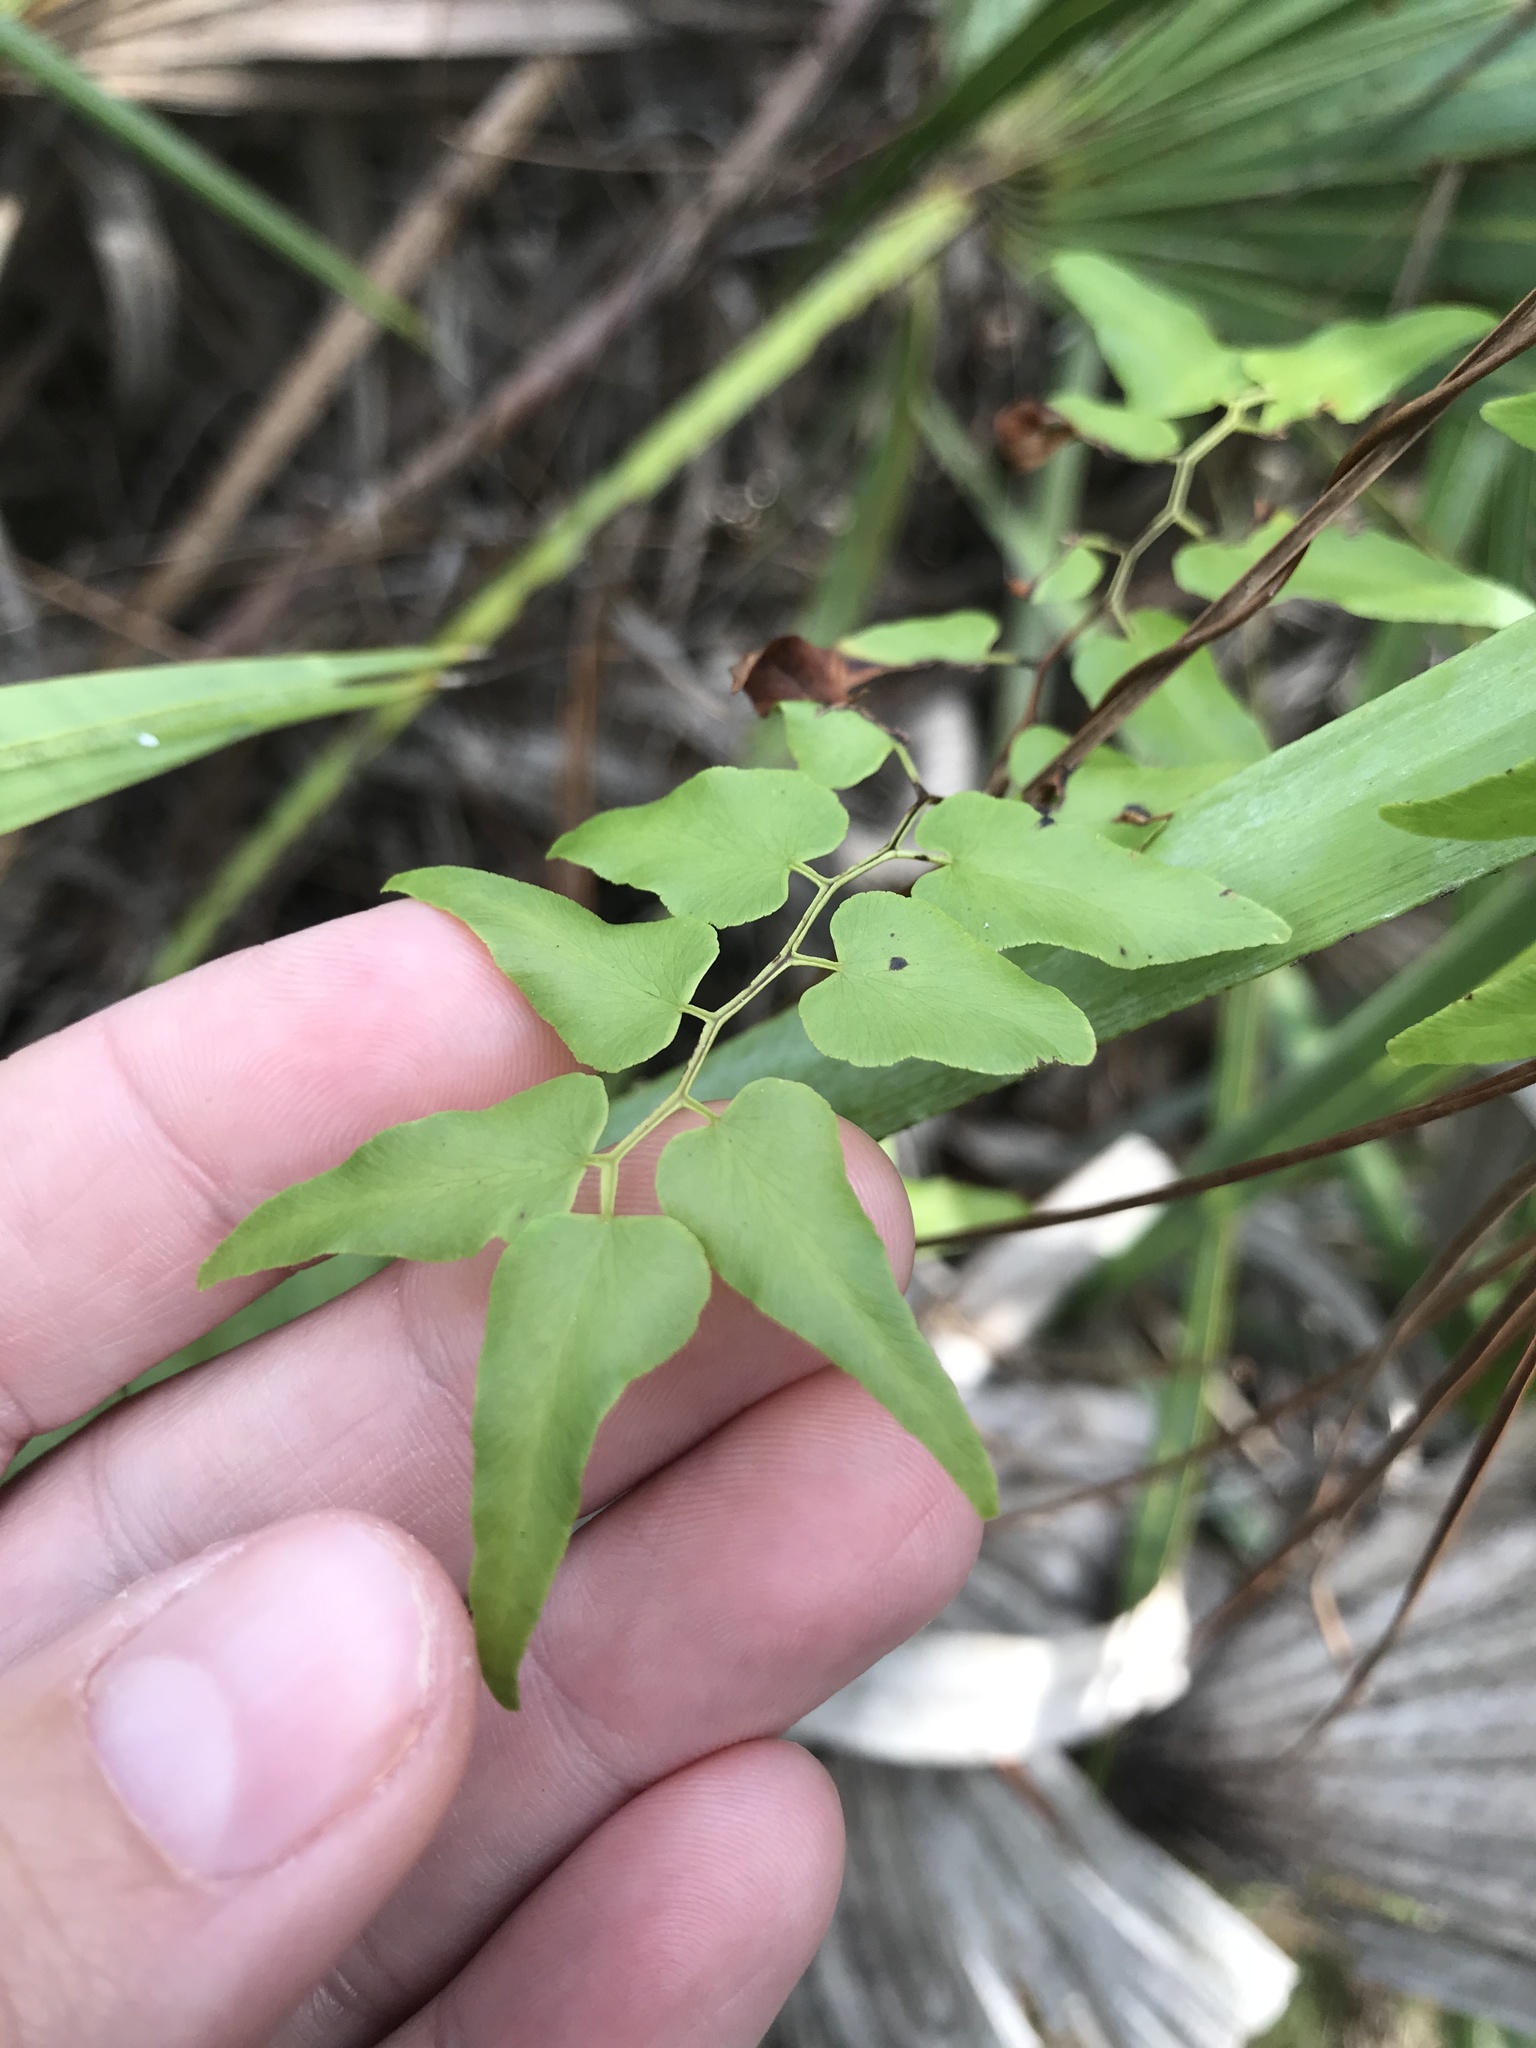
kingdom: Plantae
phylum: Tracheophyta
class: Polypodiopsida
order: Schizaeales
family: Lygodiaceae
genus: Lygodium
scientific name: Lygodium microphyllum
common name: Small-leaf climbing fern
